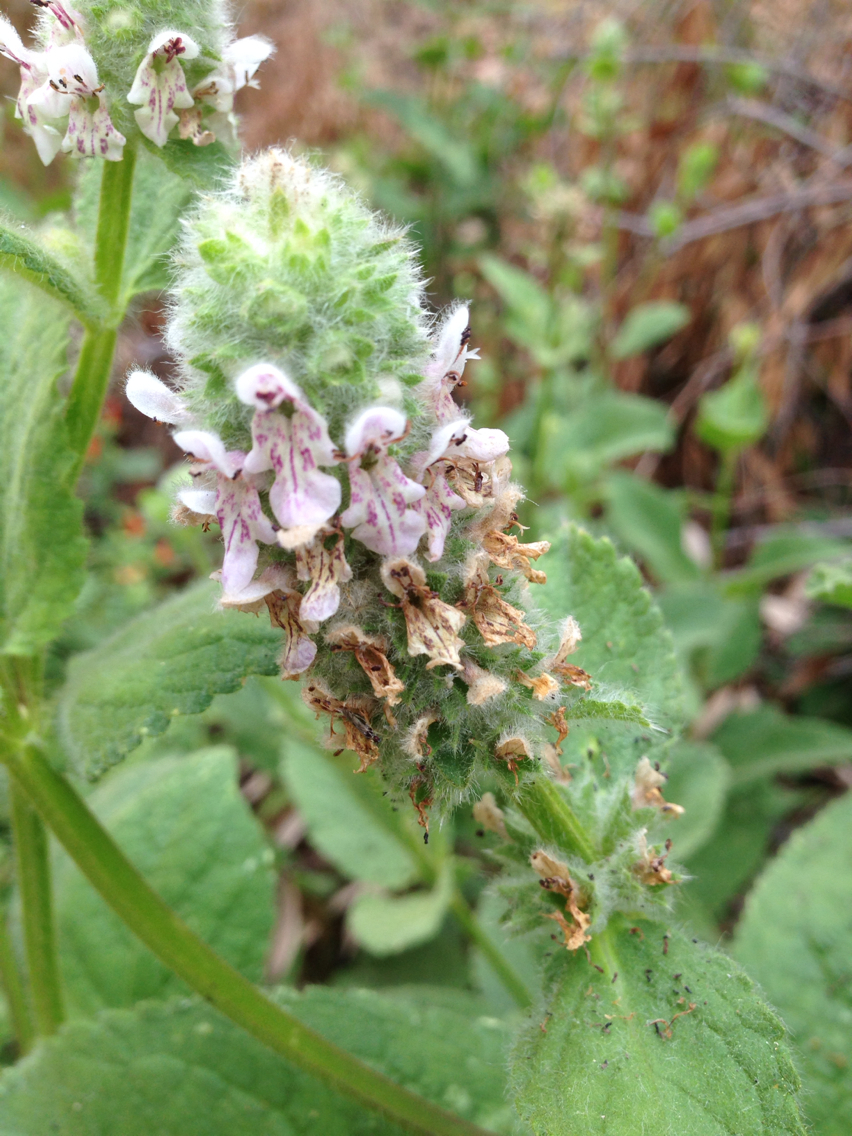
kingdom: Plantae
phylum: Tracheophyta
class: Magnoliopsida
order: Lamiales
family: Lamiaceae
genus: Stachys
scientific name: Stachys pycnantha
